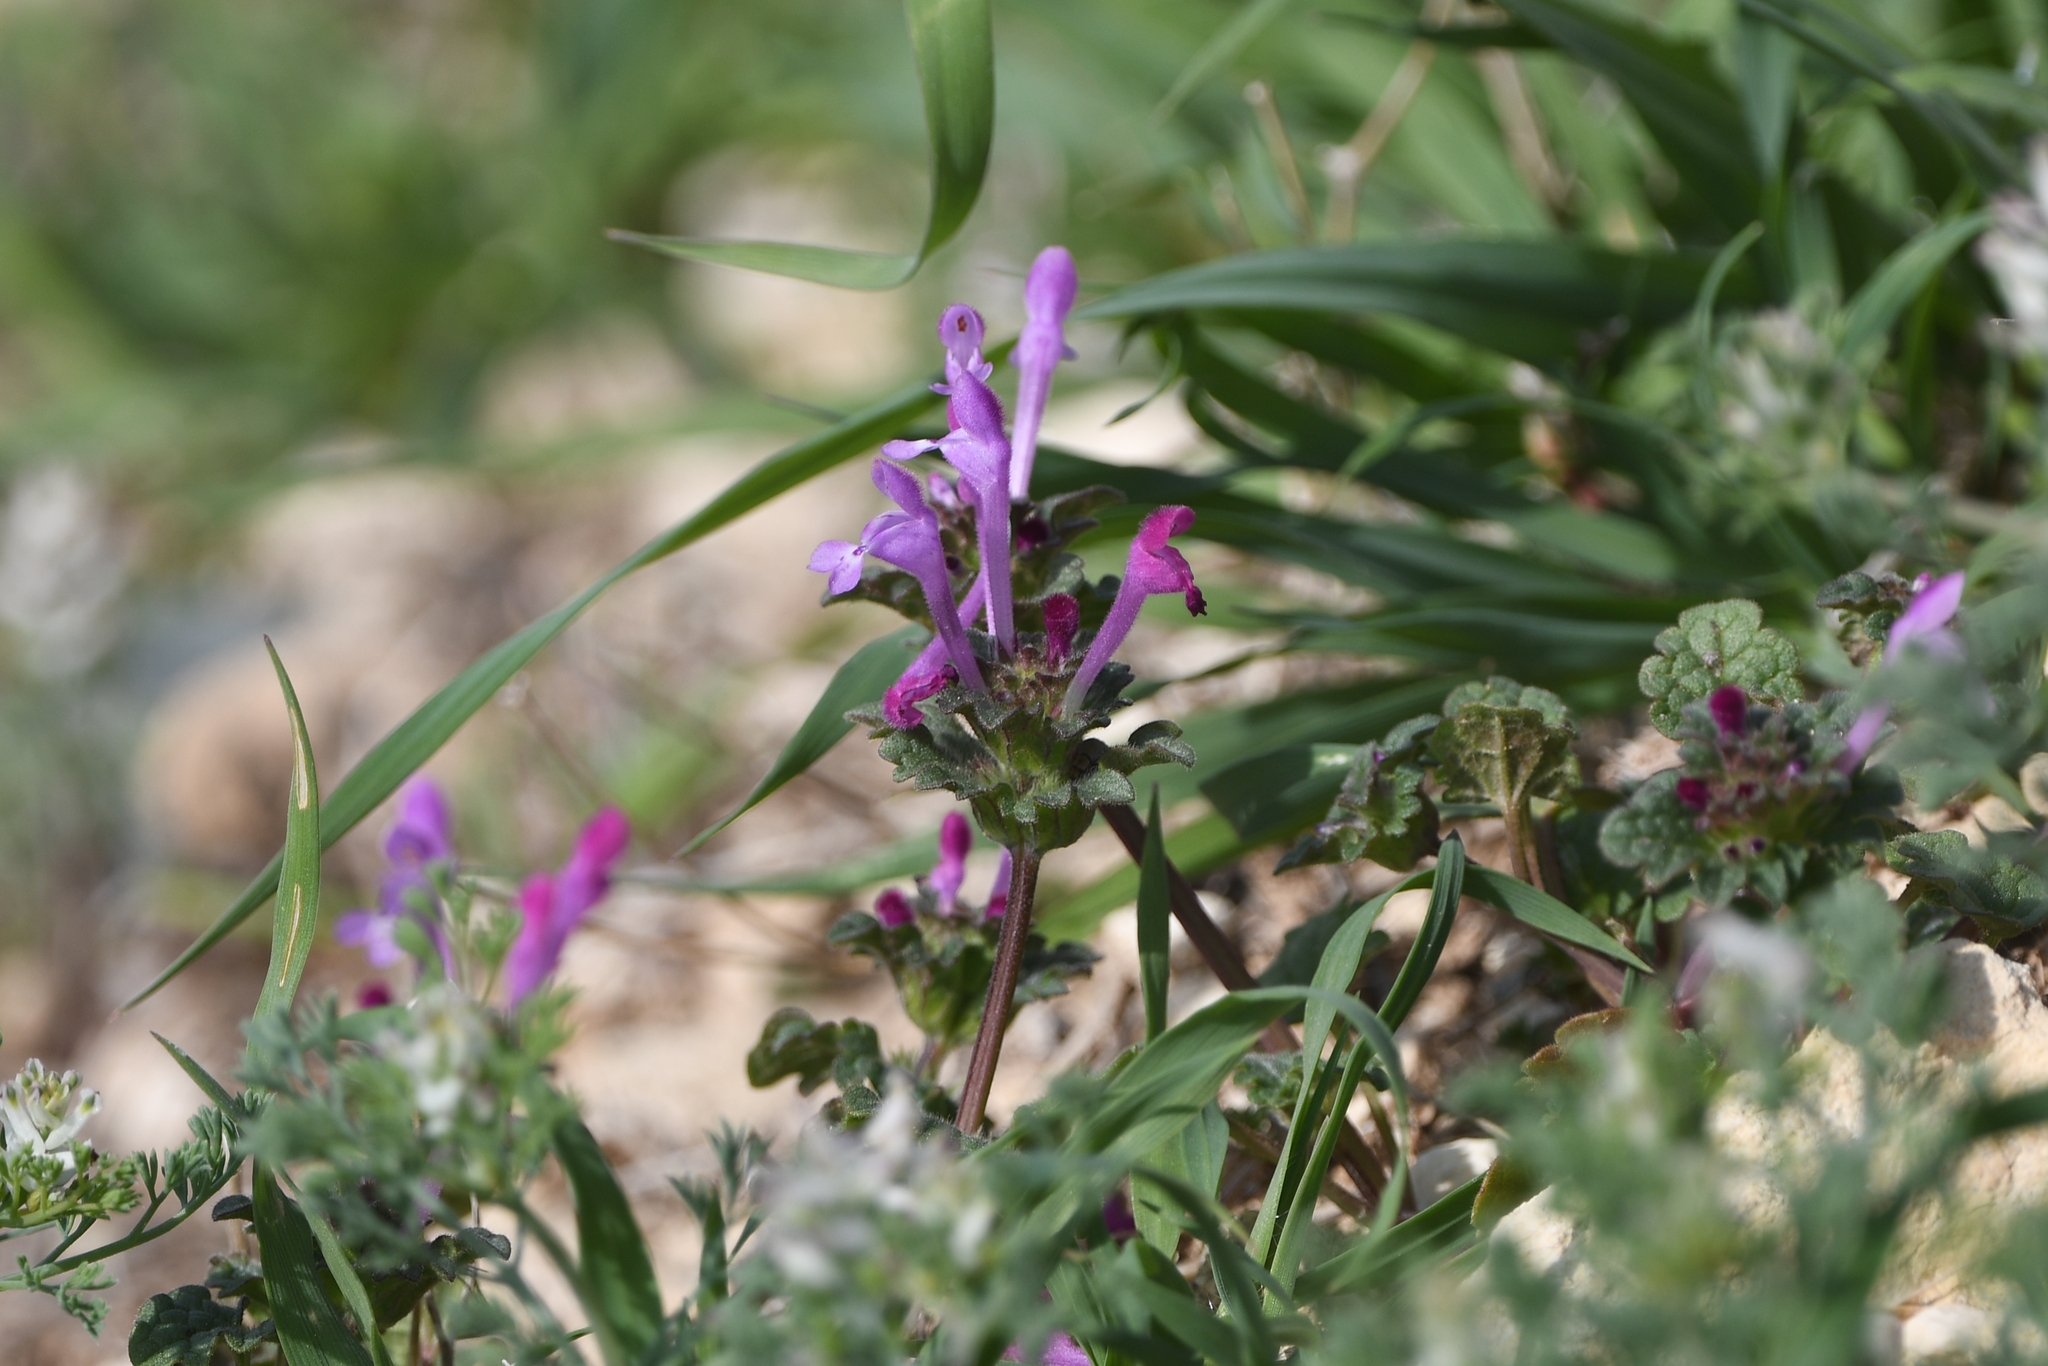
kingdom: Plantae
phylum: Tracheophyta
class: Magnoliopsida
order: Lamiales
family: Lamiaceae
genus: Lamium
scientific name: Lamium amplexicaule
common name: Henbit dead-nettle
